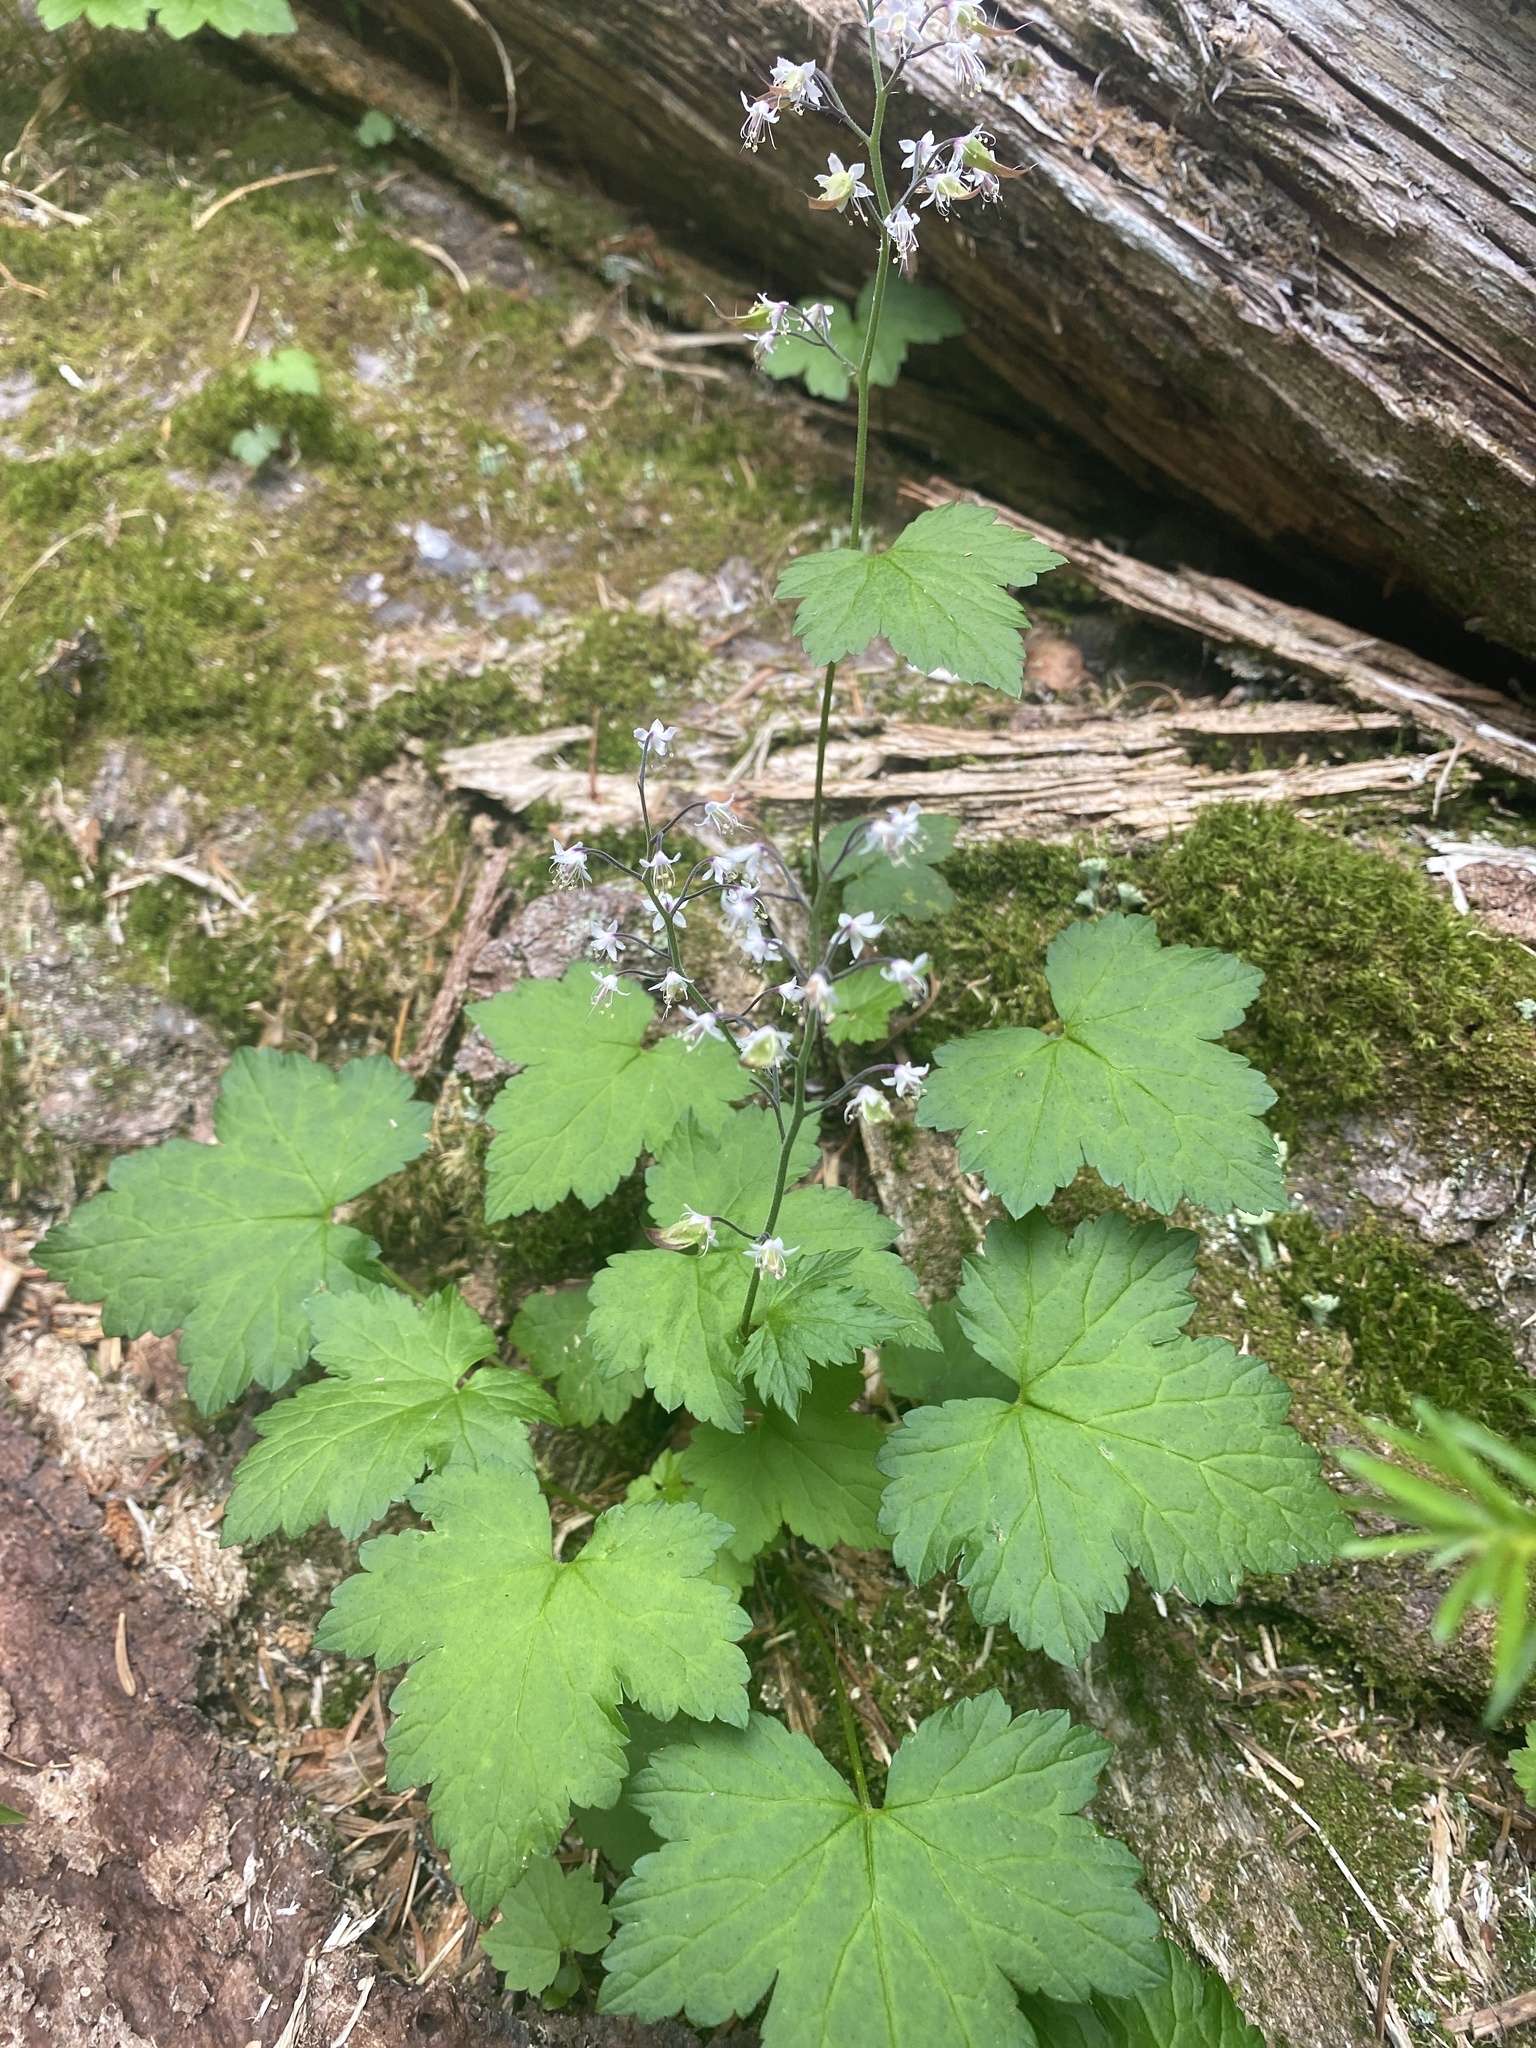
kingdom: Plantae
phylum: Tracheophyta
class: Magnoliopsida
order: Saxifragales
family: Saxifragaceae
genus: Tiarella
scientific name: Tiarella trifoliata
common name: Sugar-scoop
